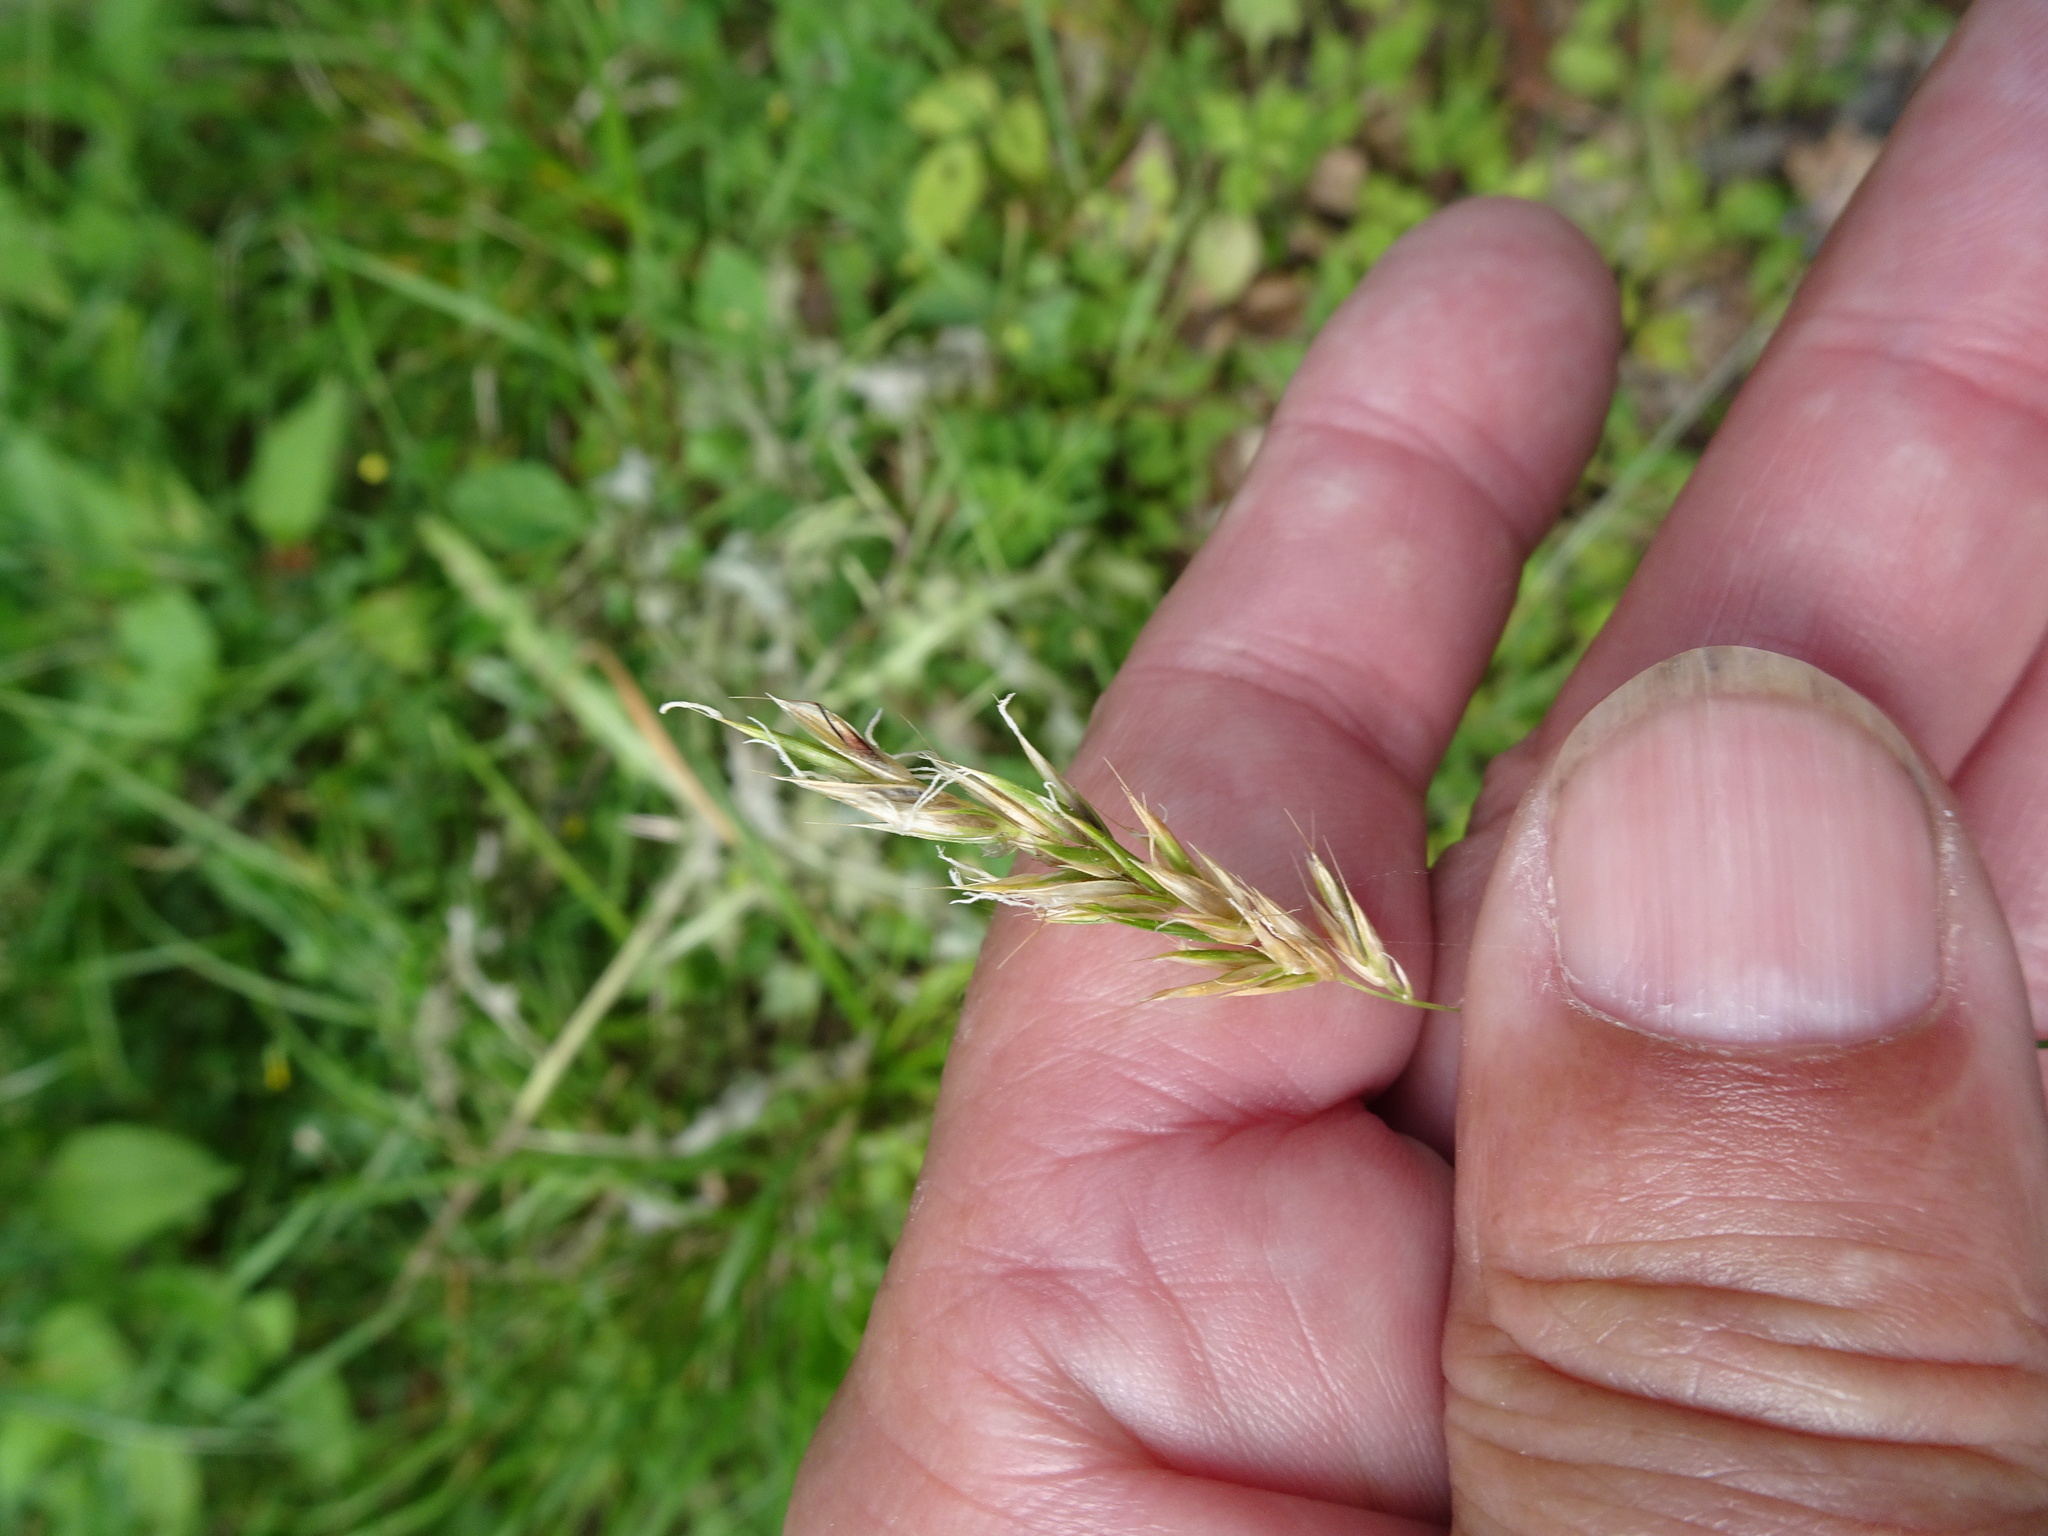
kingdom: Plantae
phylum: Tracheophyta
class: Liliopsida
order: Poales
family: Poaceae
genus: Anthoxanthum
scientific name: Anthoxanthum odoratum
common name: Sweet vernalgrass
